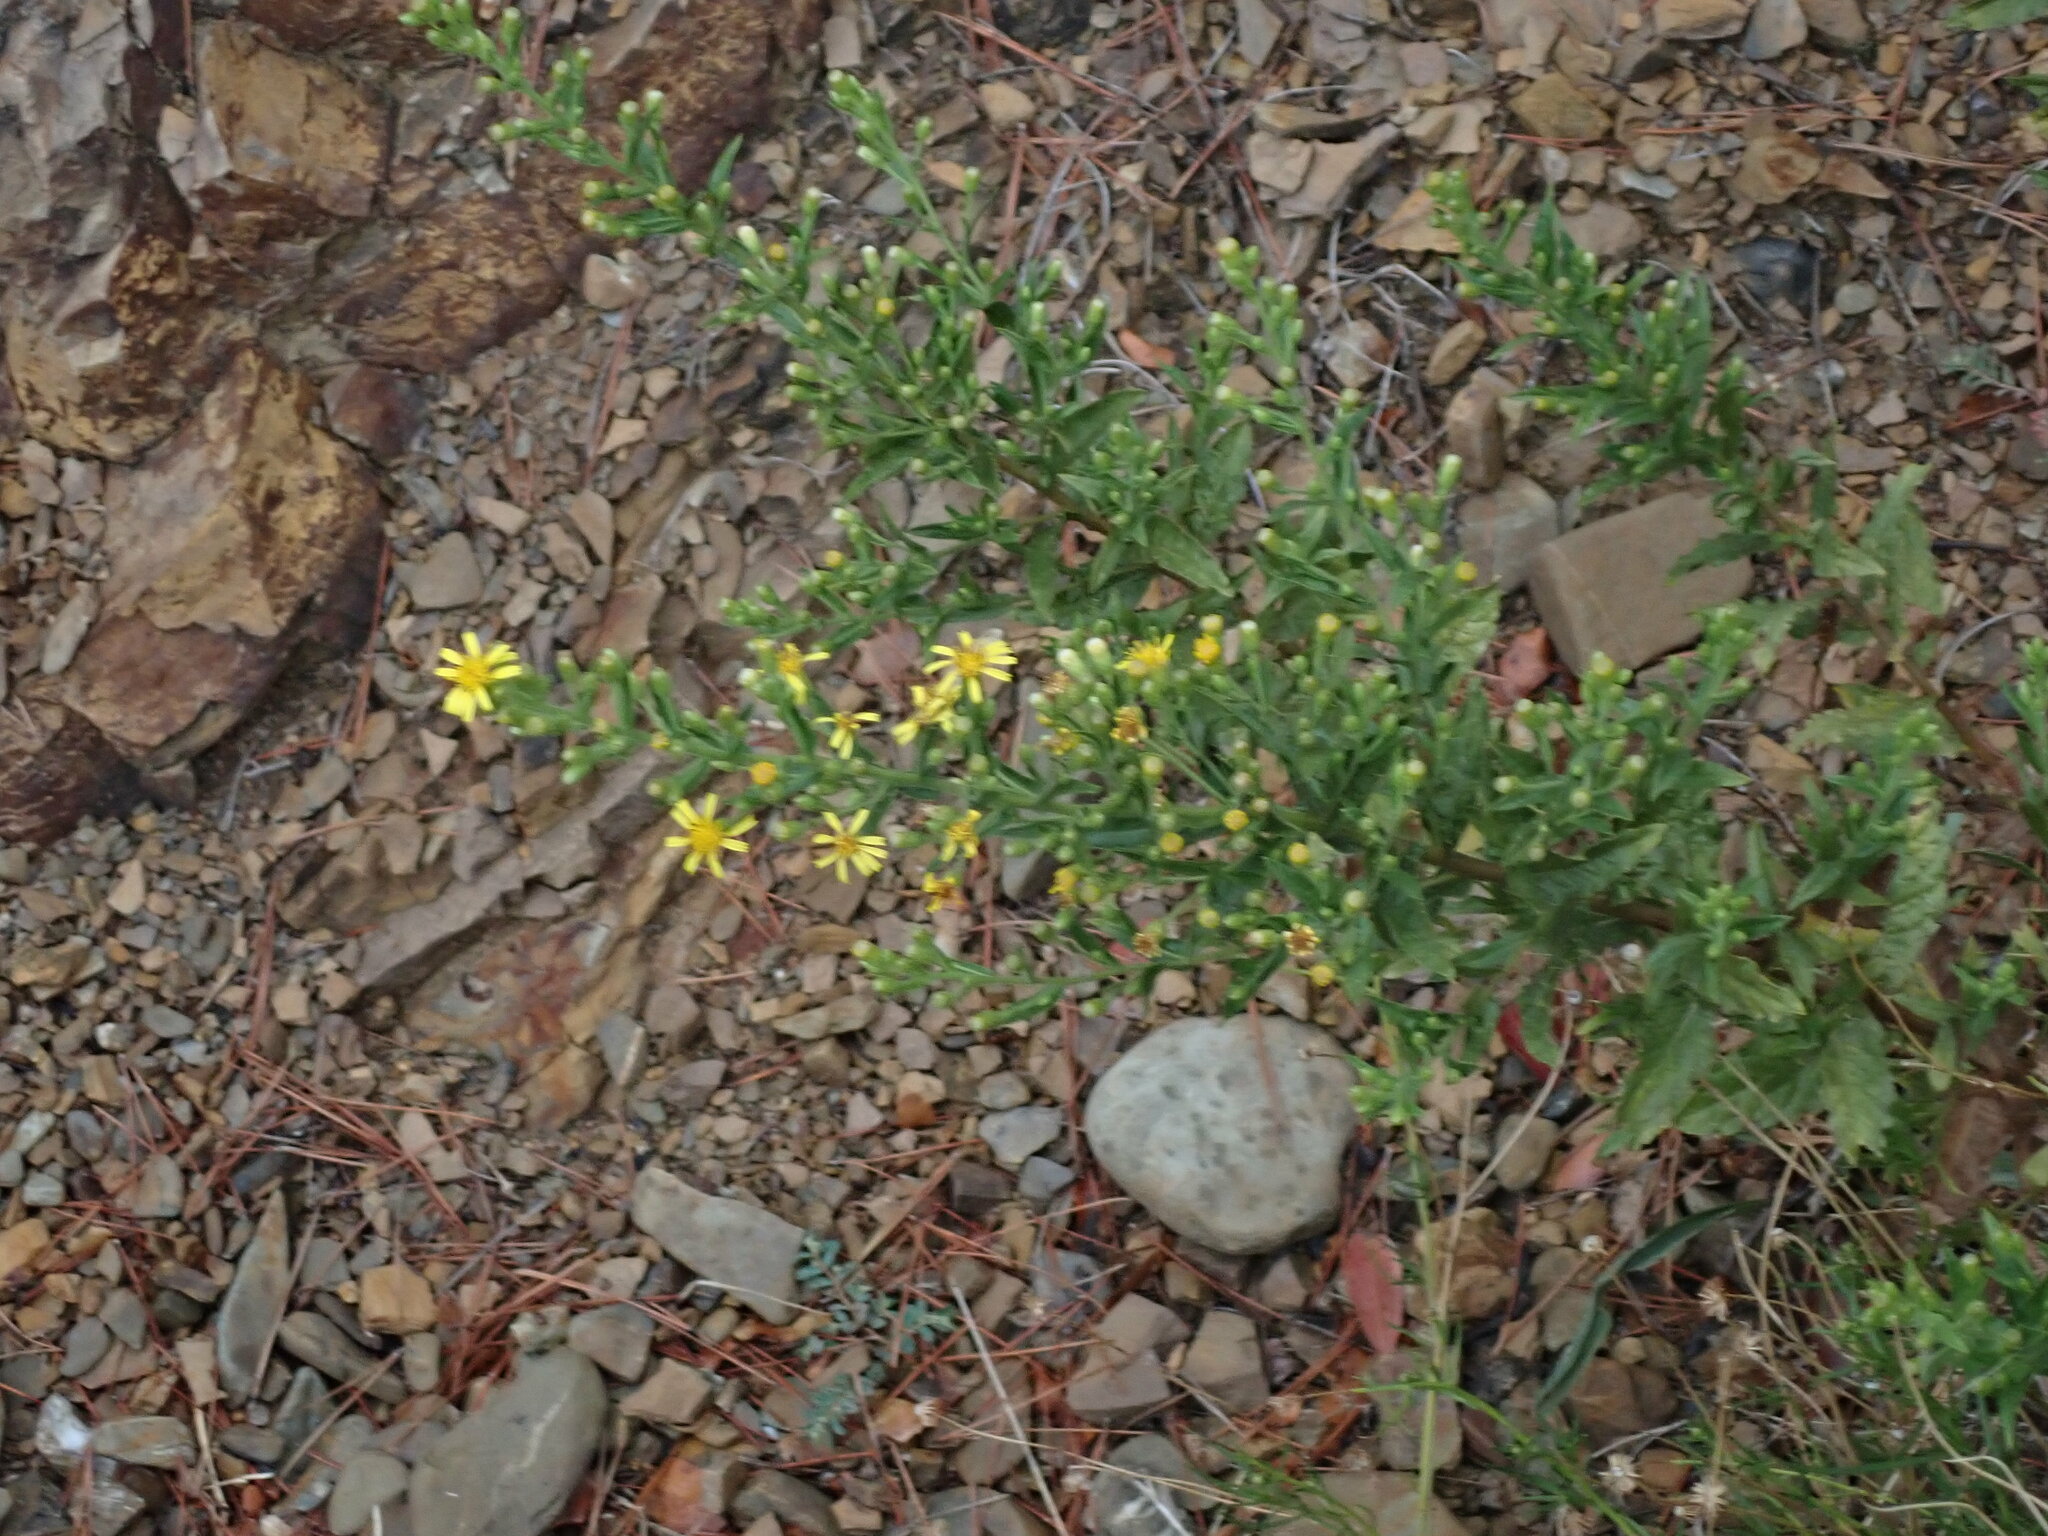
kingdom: Plantae
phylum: Tracheophyta
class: Magnoliopsida
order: Asterales
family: Asteraceae
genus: Dittrichia
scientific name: Dittrichia viscosa
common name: Woody fleabane
